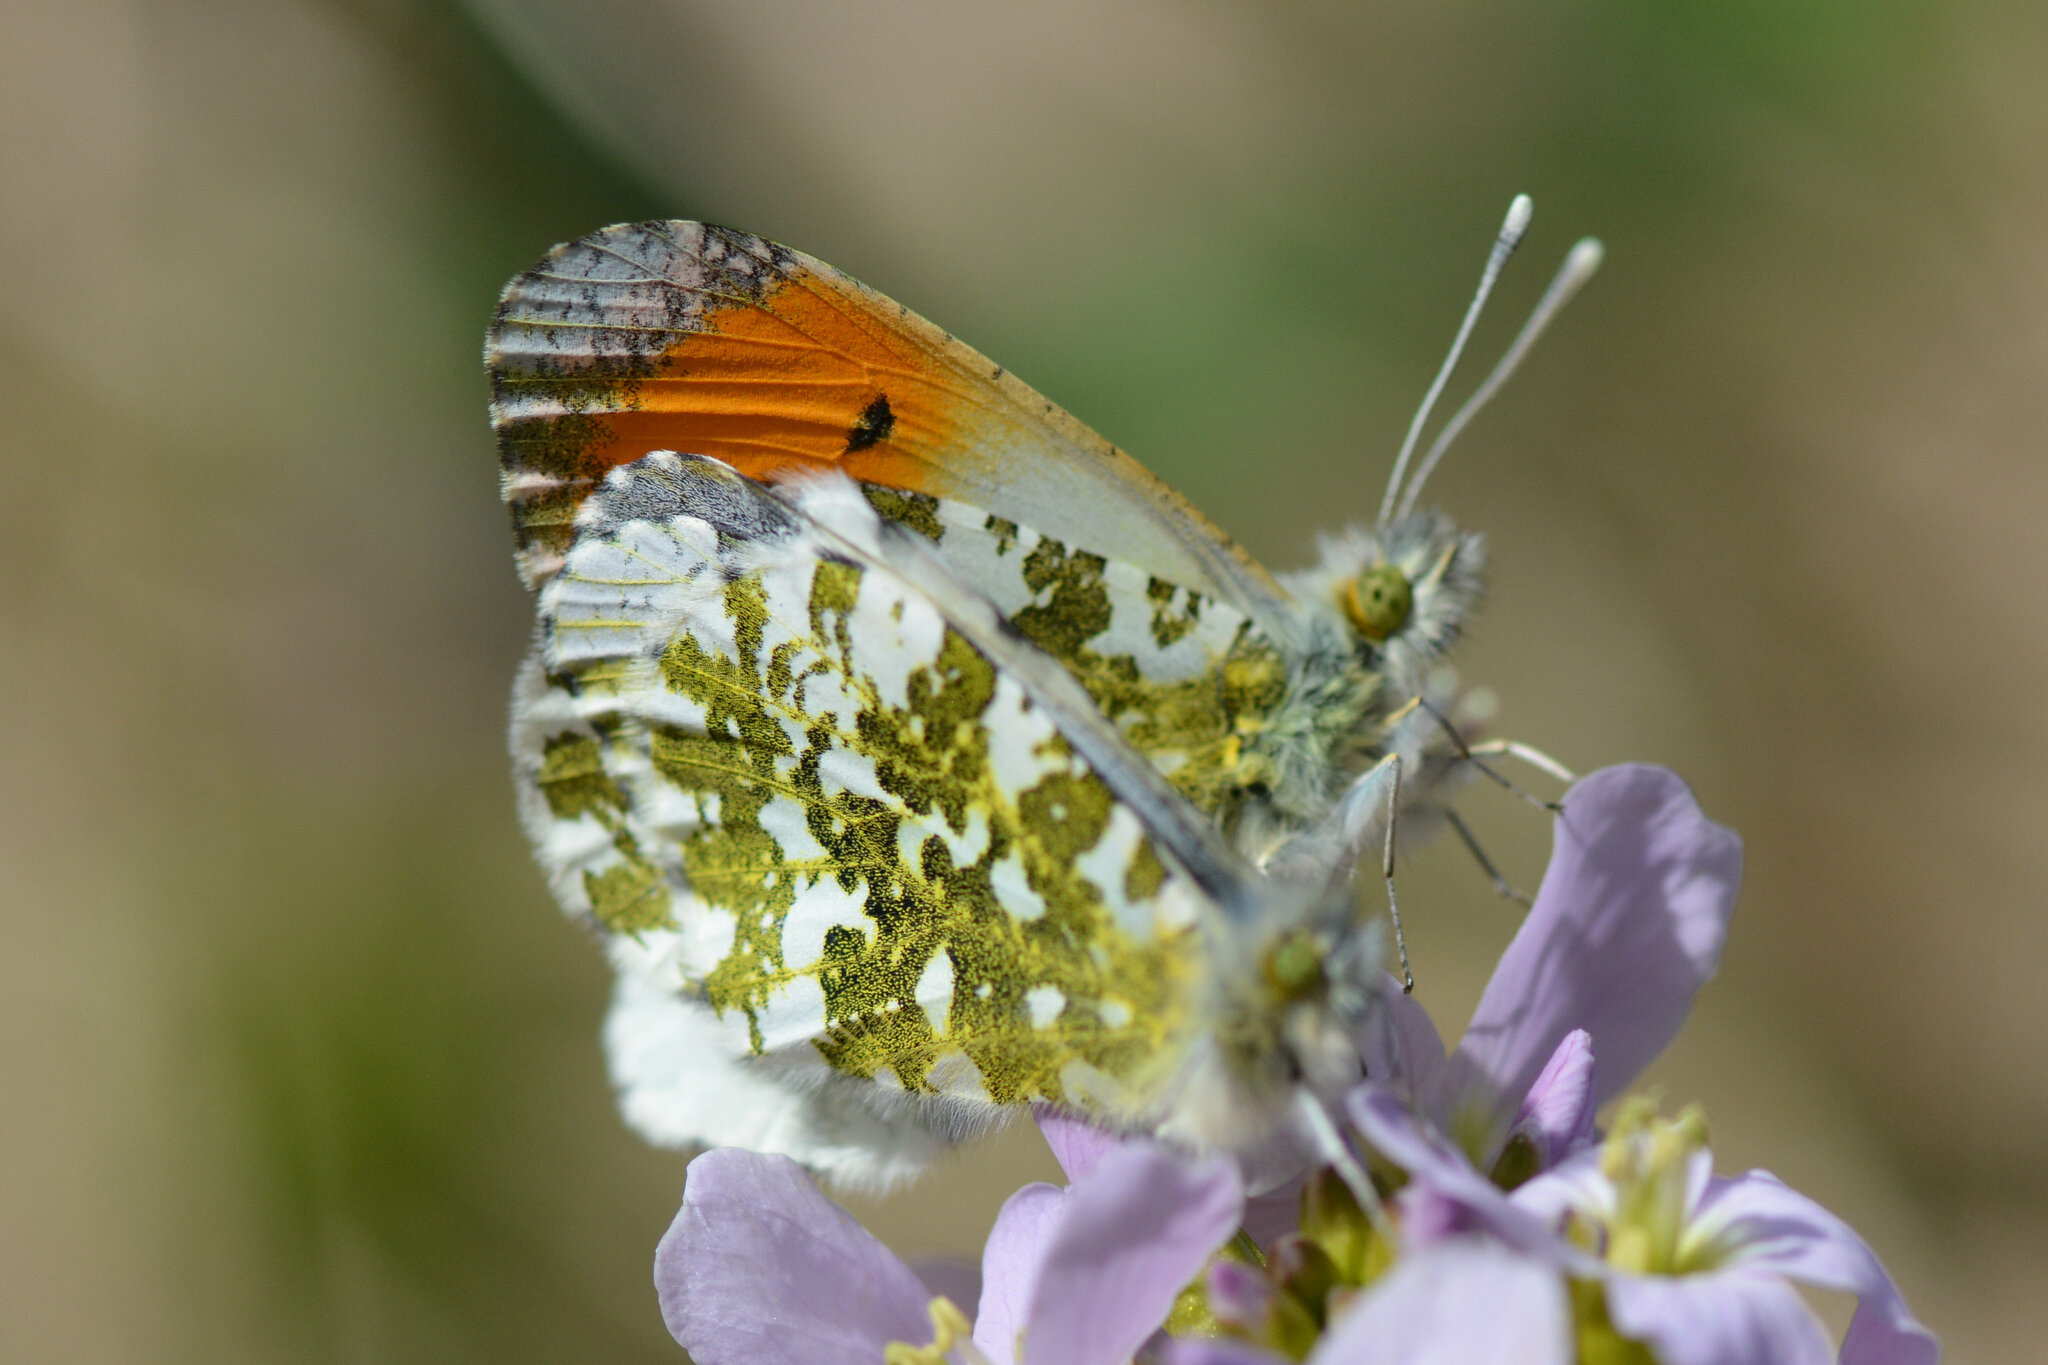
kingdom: Animalia
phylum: Arthropoda
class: Insecta
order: Lepidoptera
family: Pieridae
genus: Anthocharis
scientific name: Anthocharis cardamines
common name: Orange-tip
